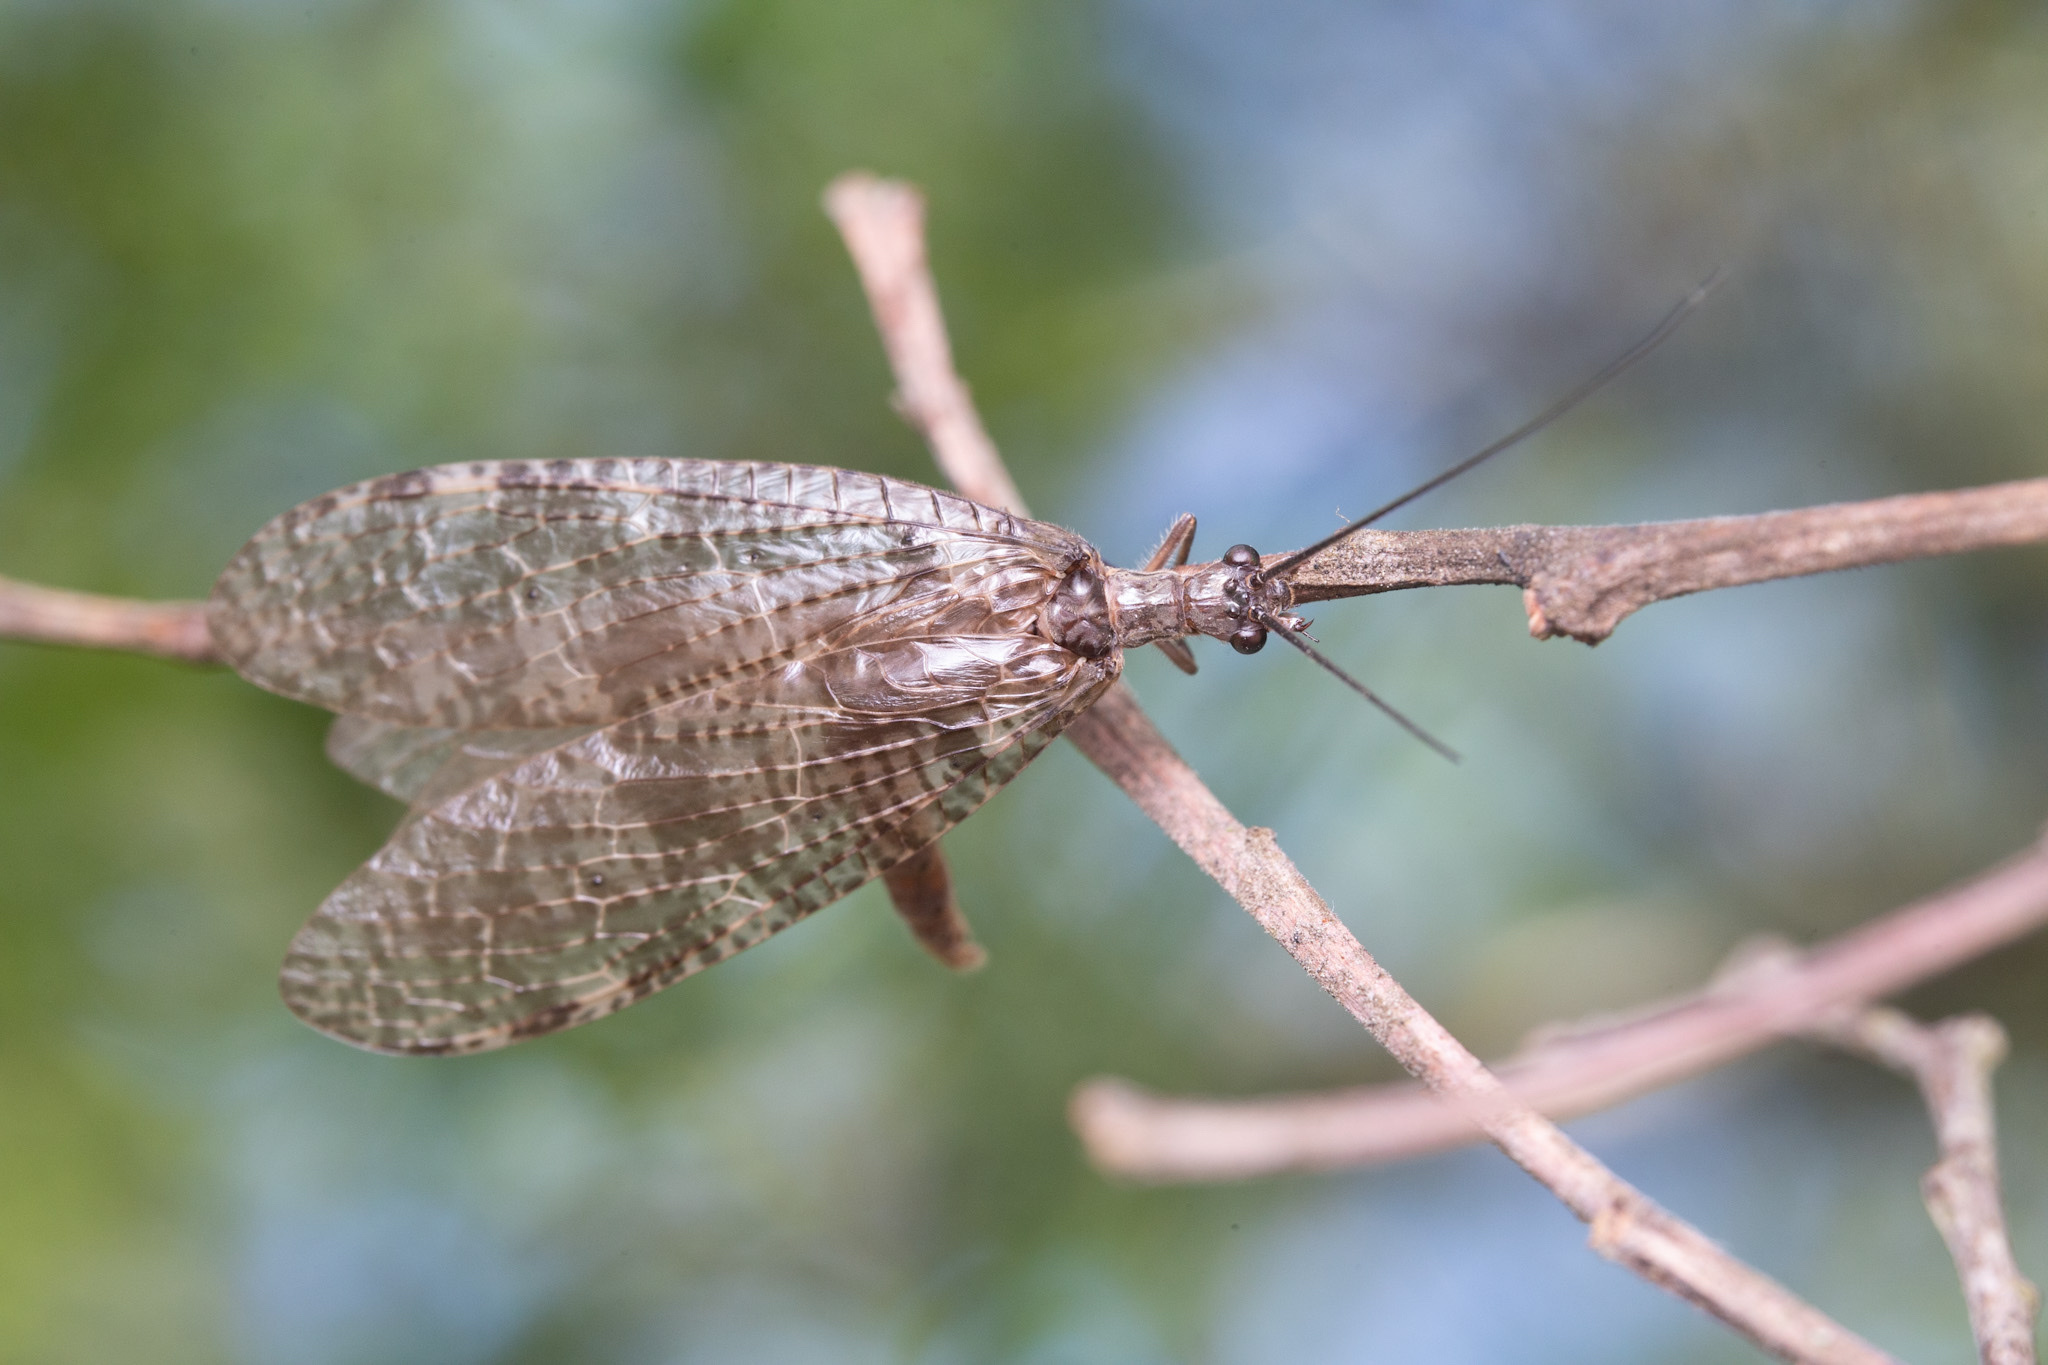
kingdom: Animalia
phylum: Arthropoda
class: Insecta
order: Megaloptera
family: Corydalidae
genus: Archichauliodes
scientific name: Archichauliodes diversus
